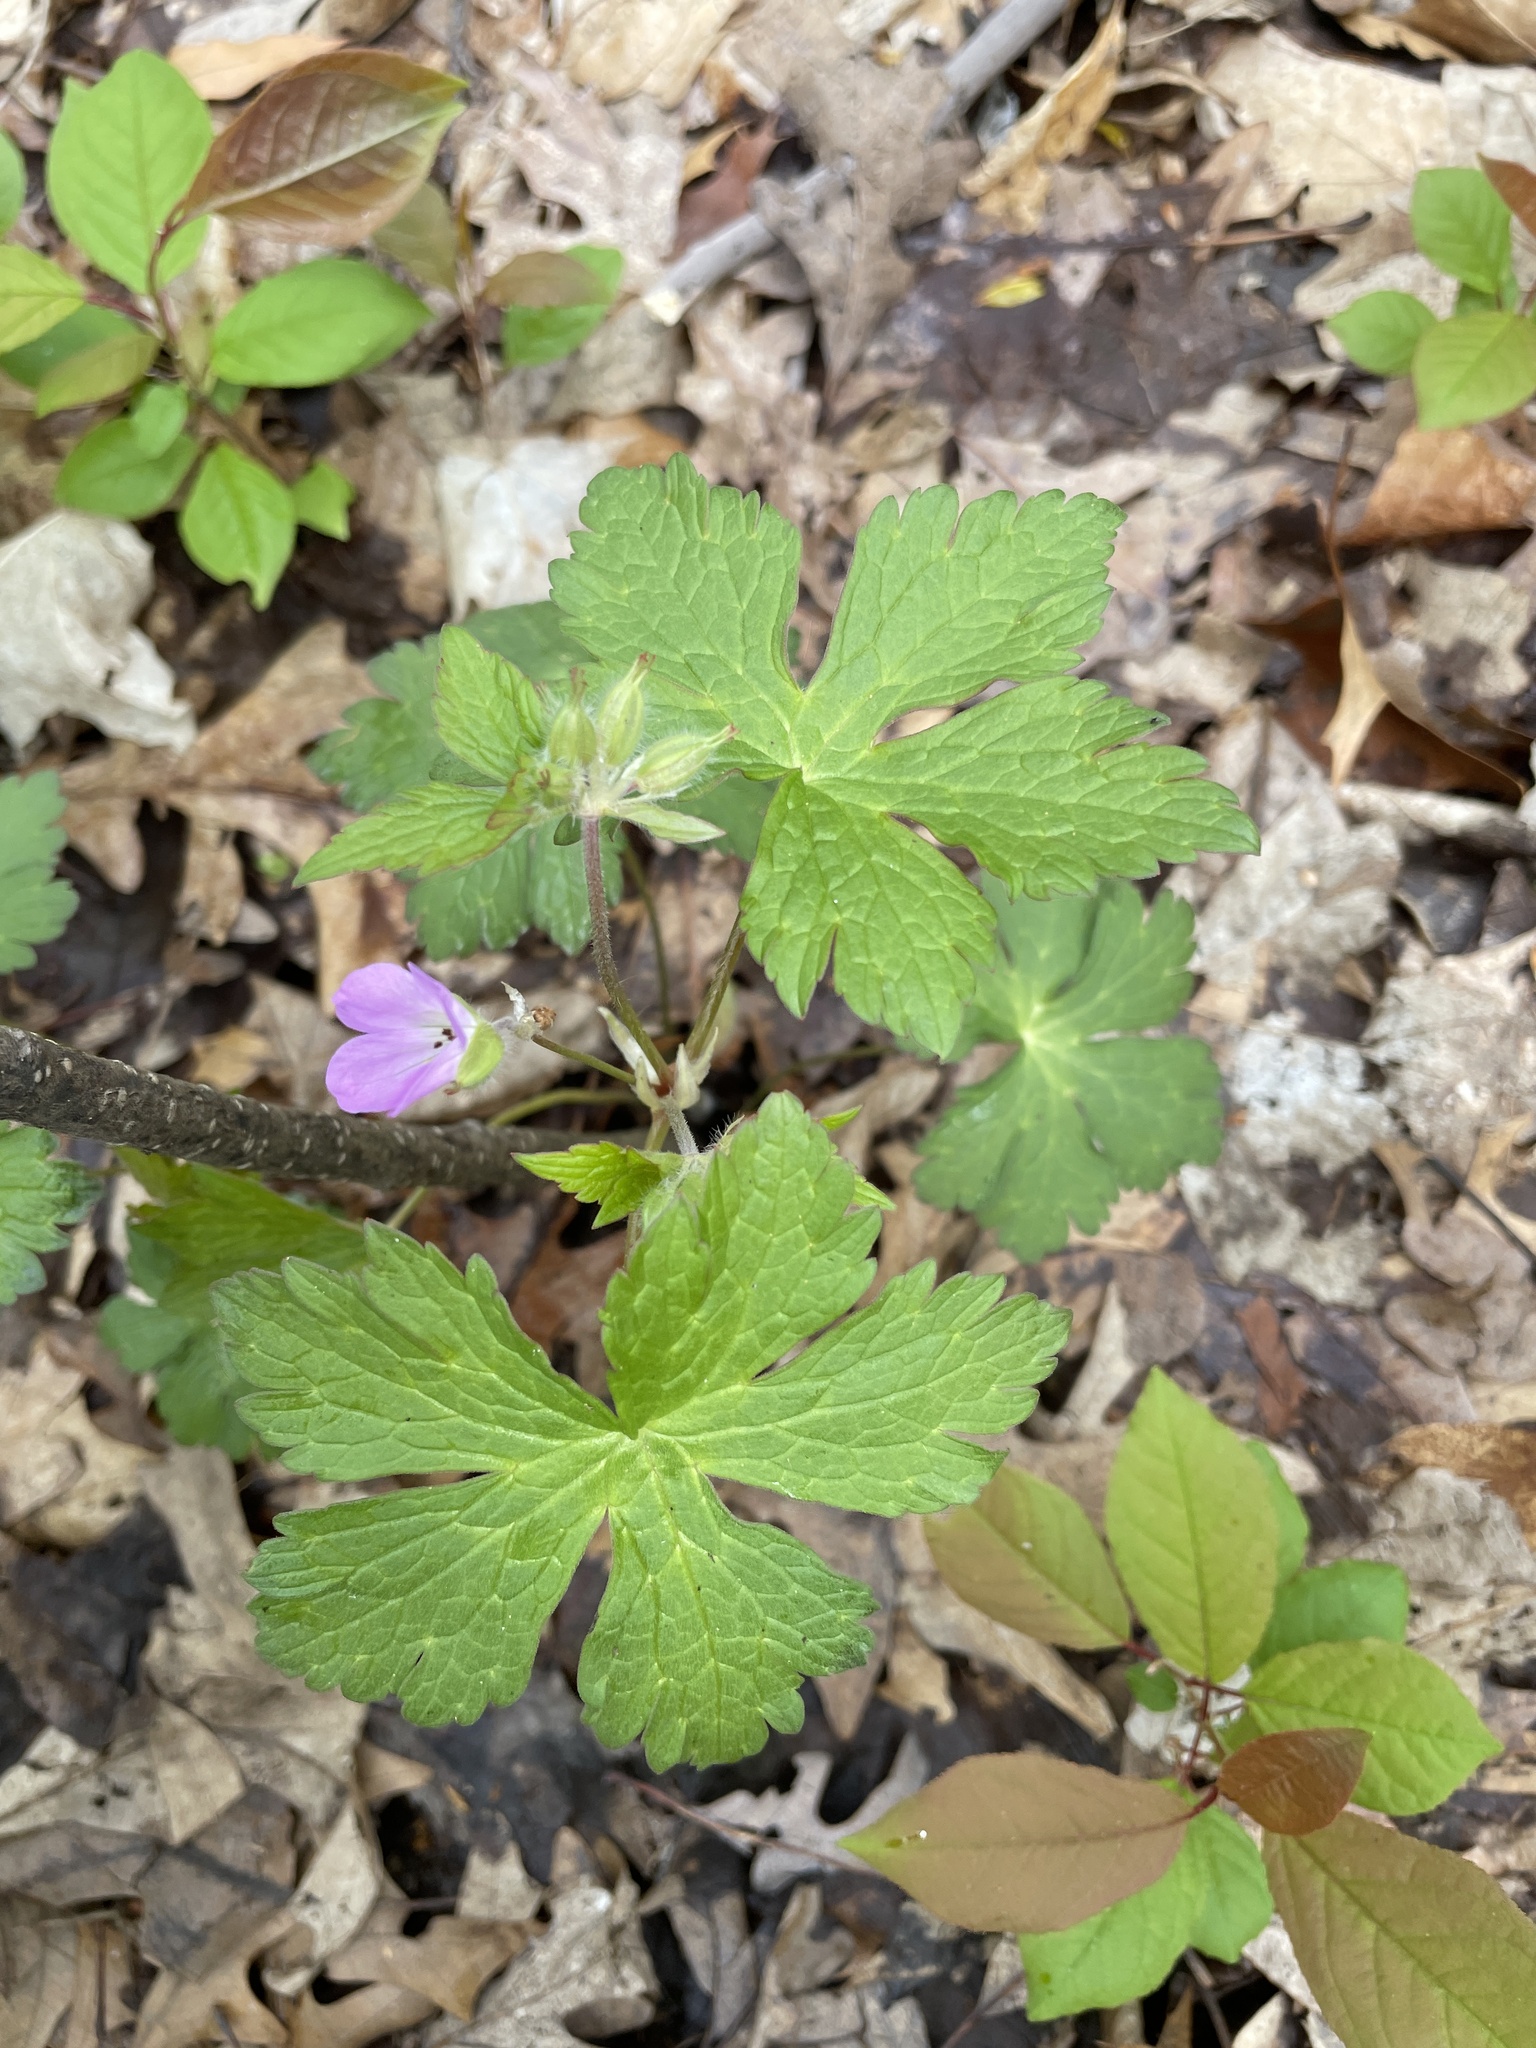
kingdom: Plantae
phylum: Tracheophyta
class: Magnoliopsida
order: Geraniales
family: Geraniaceae
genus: Geranium
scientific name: Geranium maculatum
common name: Spotted geranium
